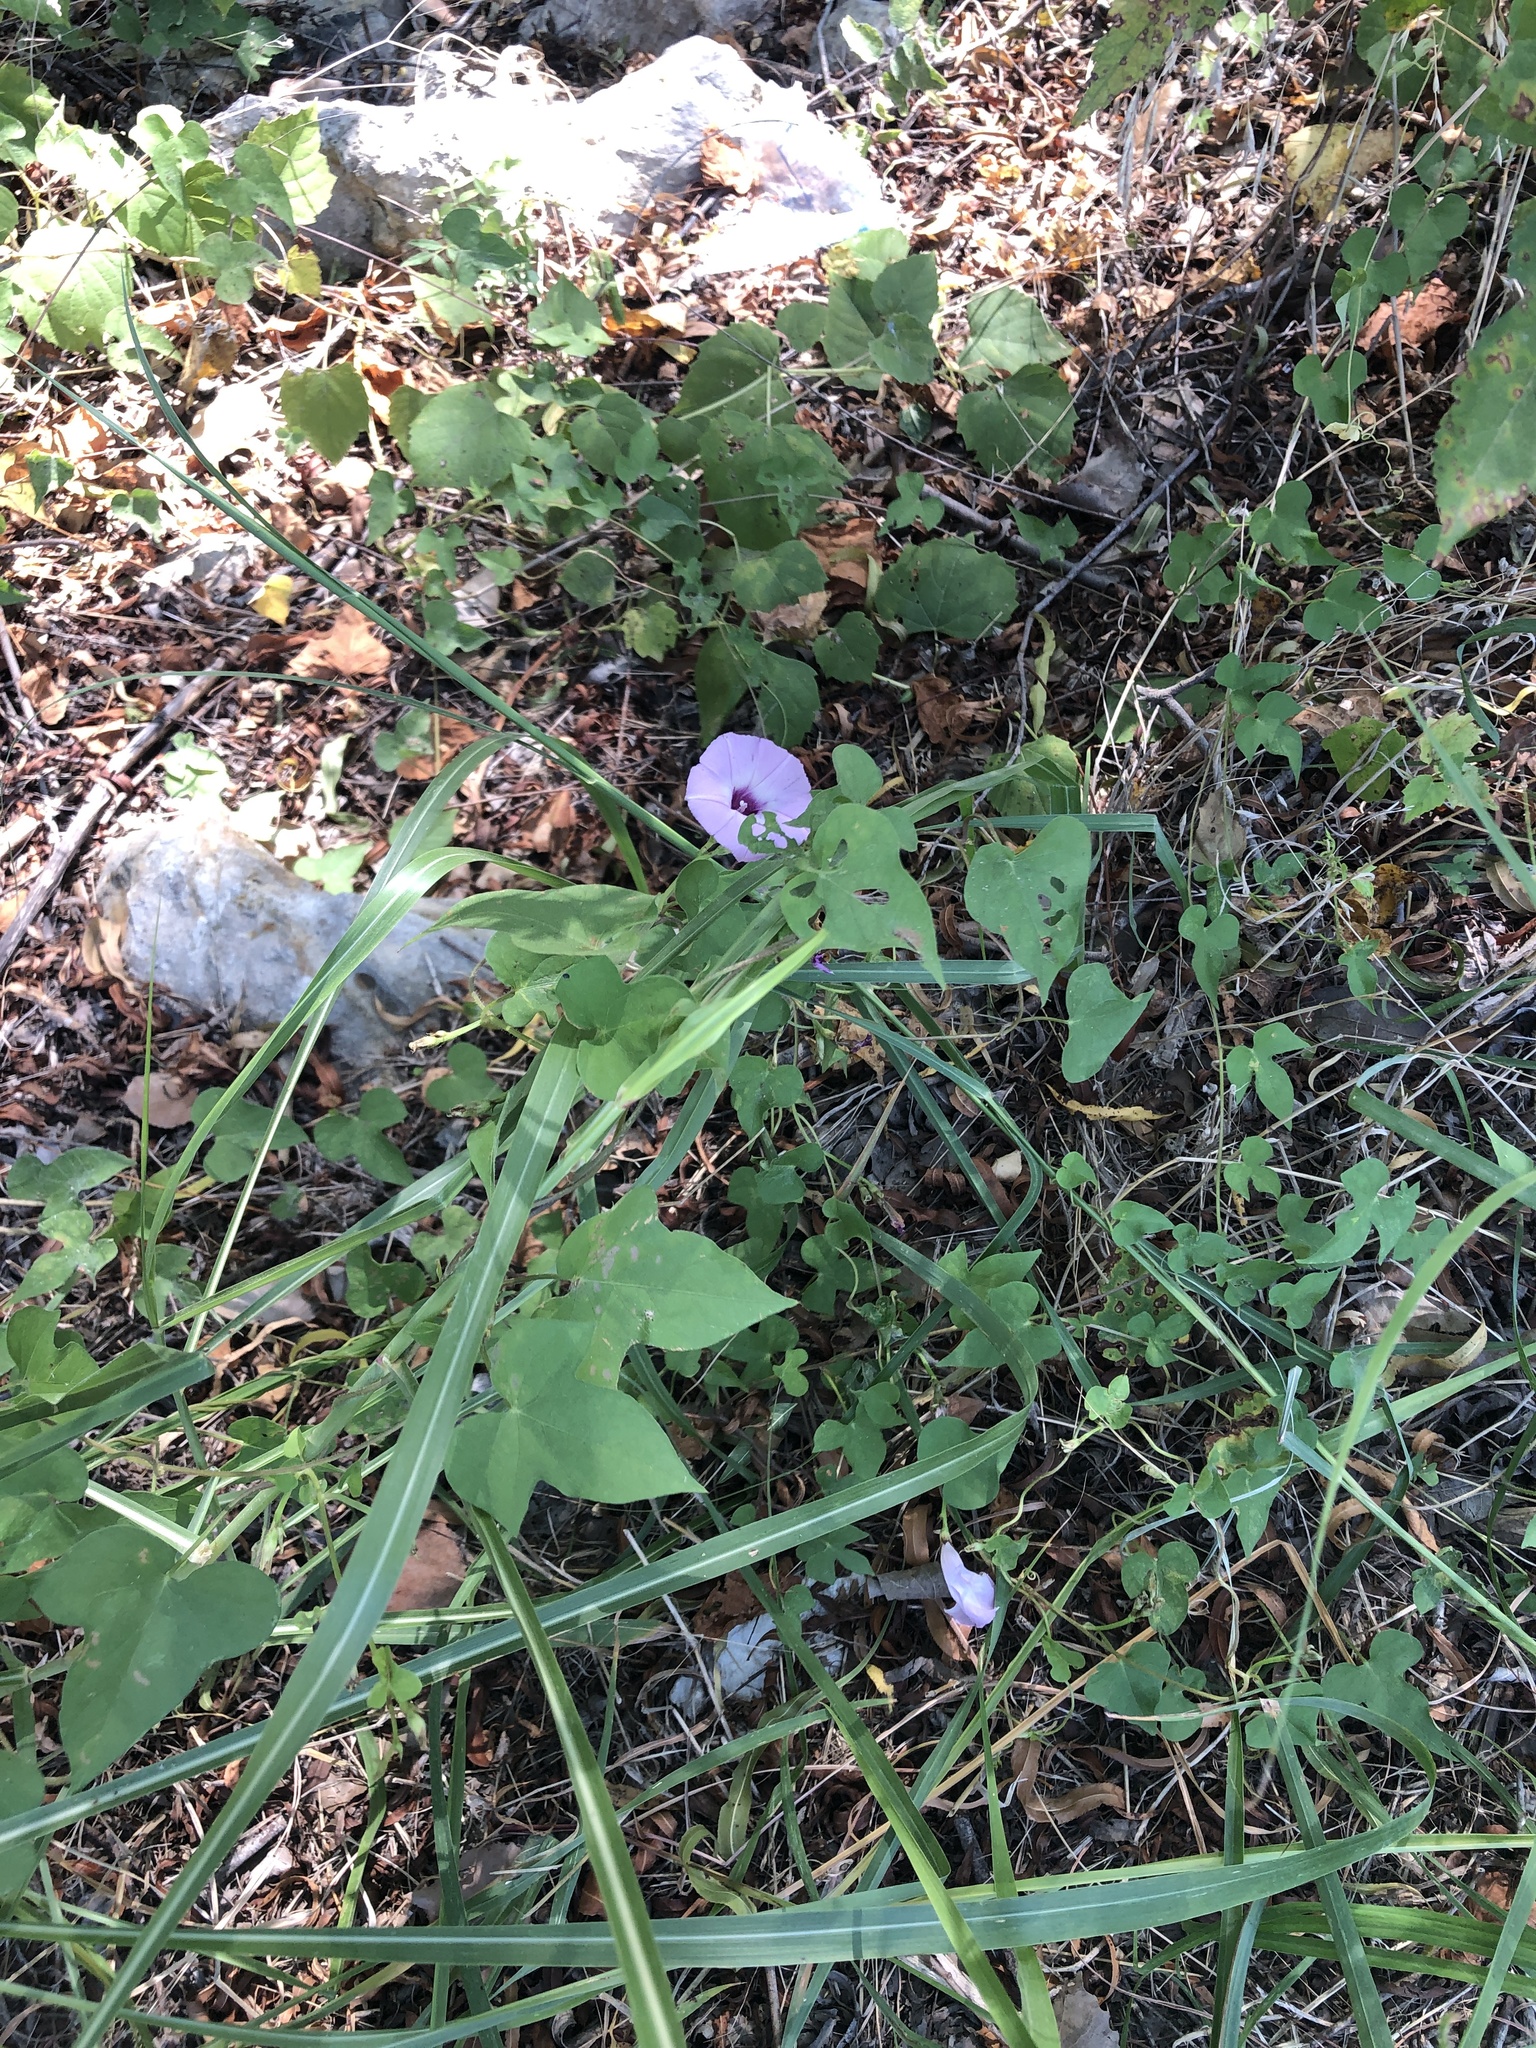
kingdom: Plantae
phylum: Tracheophyta
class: Magnoliopsida
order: Solanales
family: Convolvulaceae
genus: Ipomoea
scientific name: Ipomoea cordatotriloba
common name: Cotton morning glory
